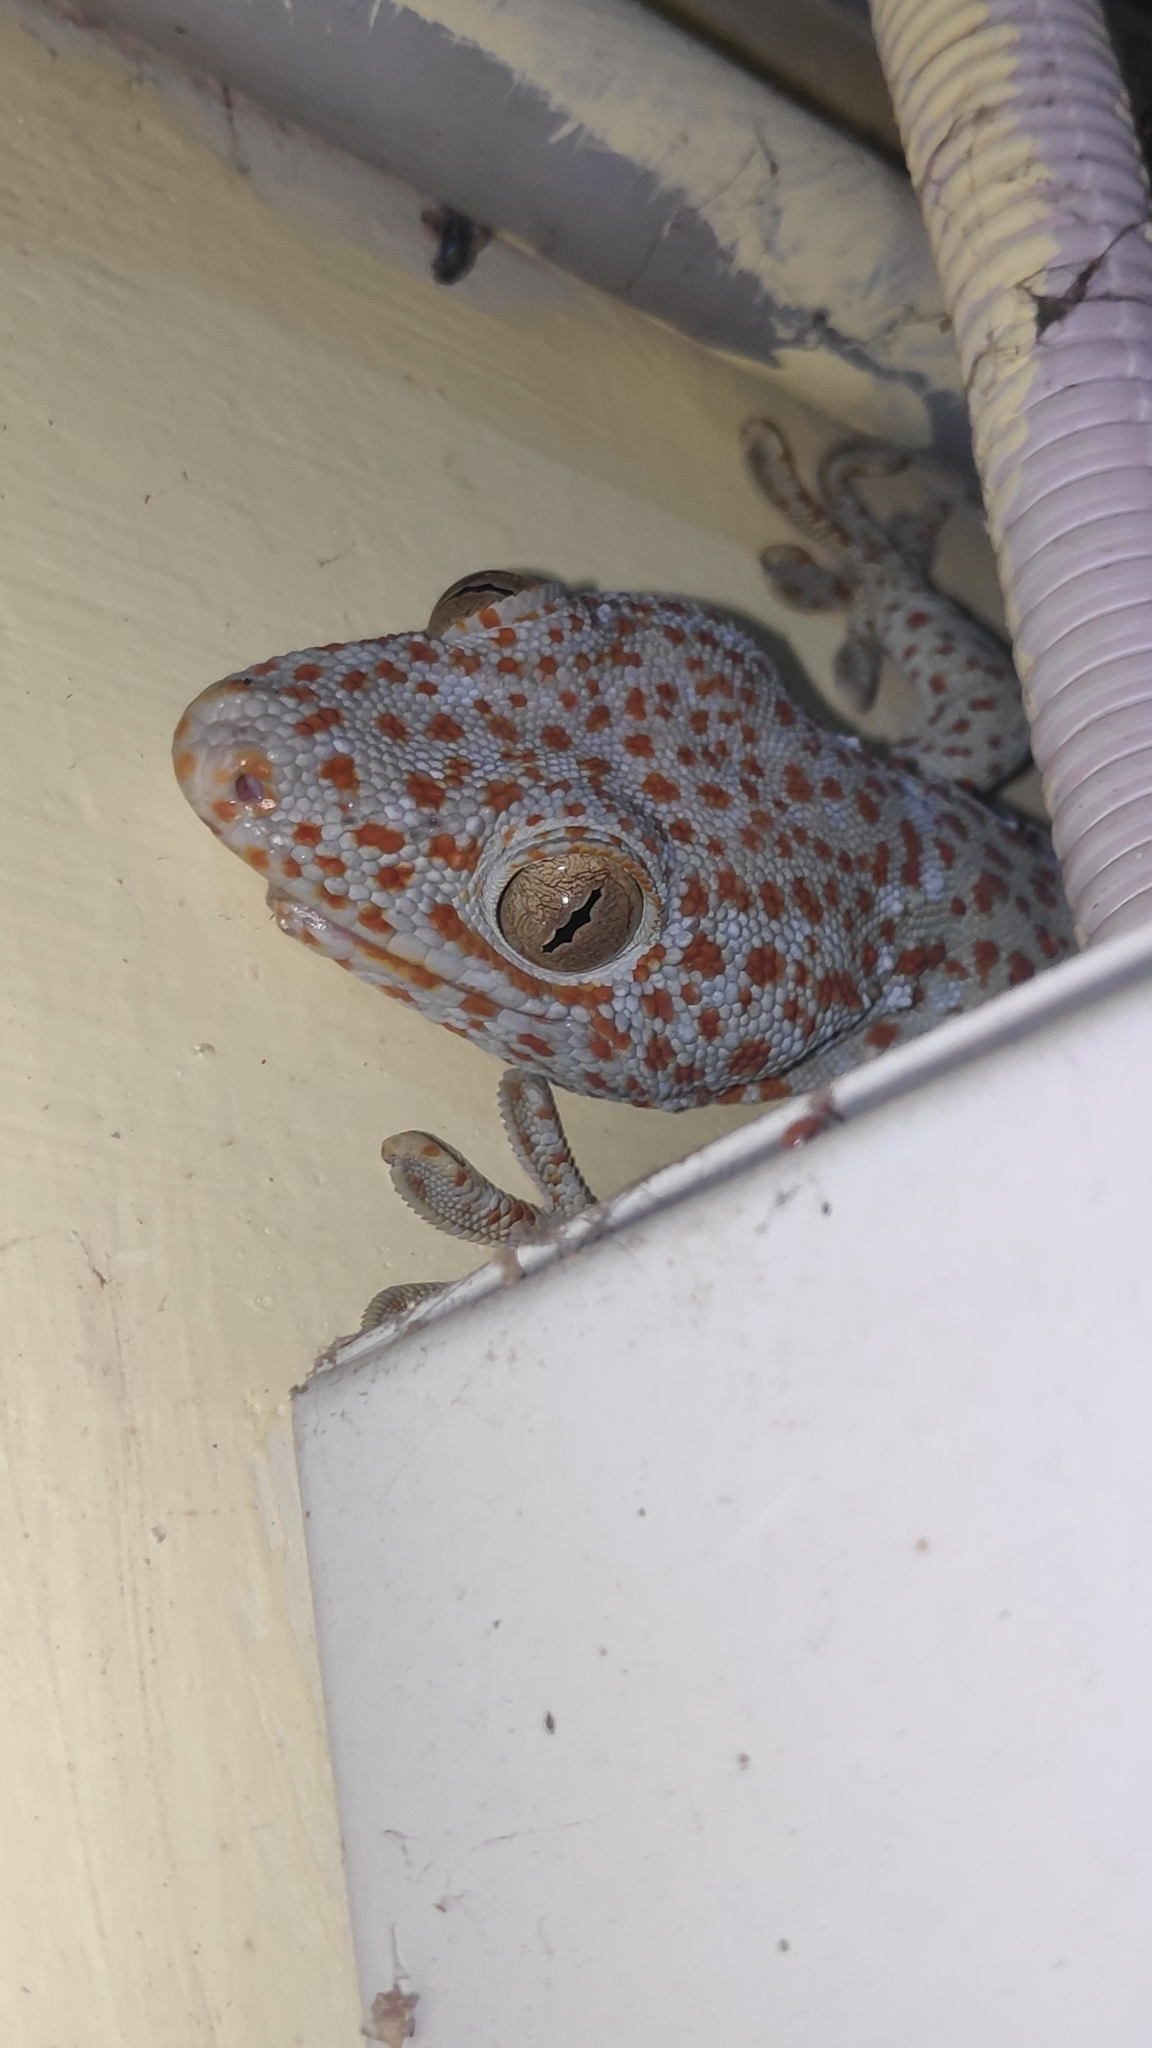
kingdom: Animalia
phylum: Chordata
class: Squamata
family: Gekkonidae
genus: Gekko
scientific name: Gekko gecko
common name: Tokay gecko
